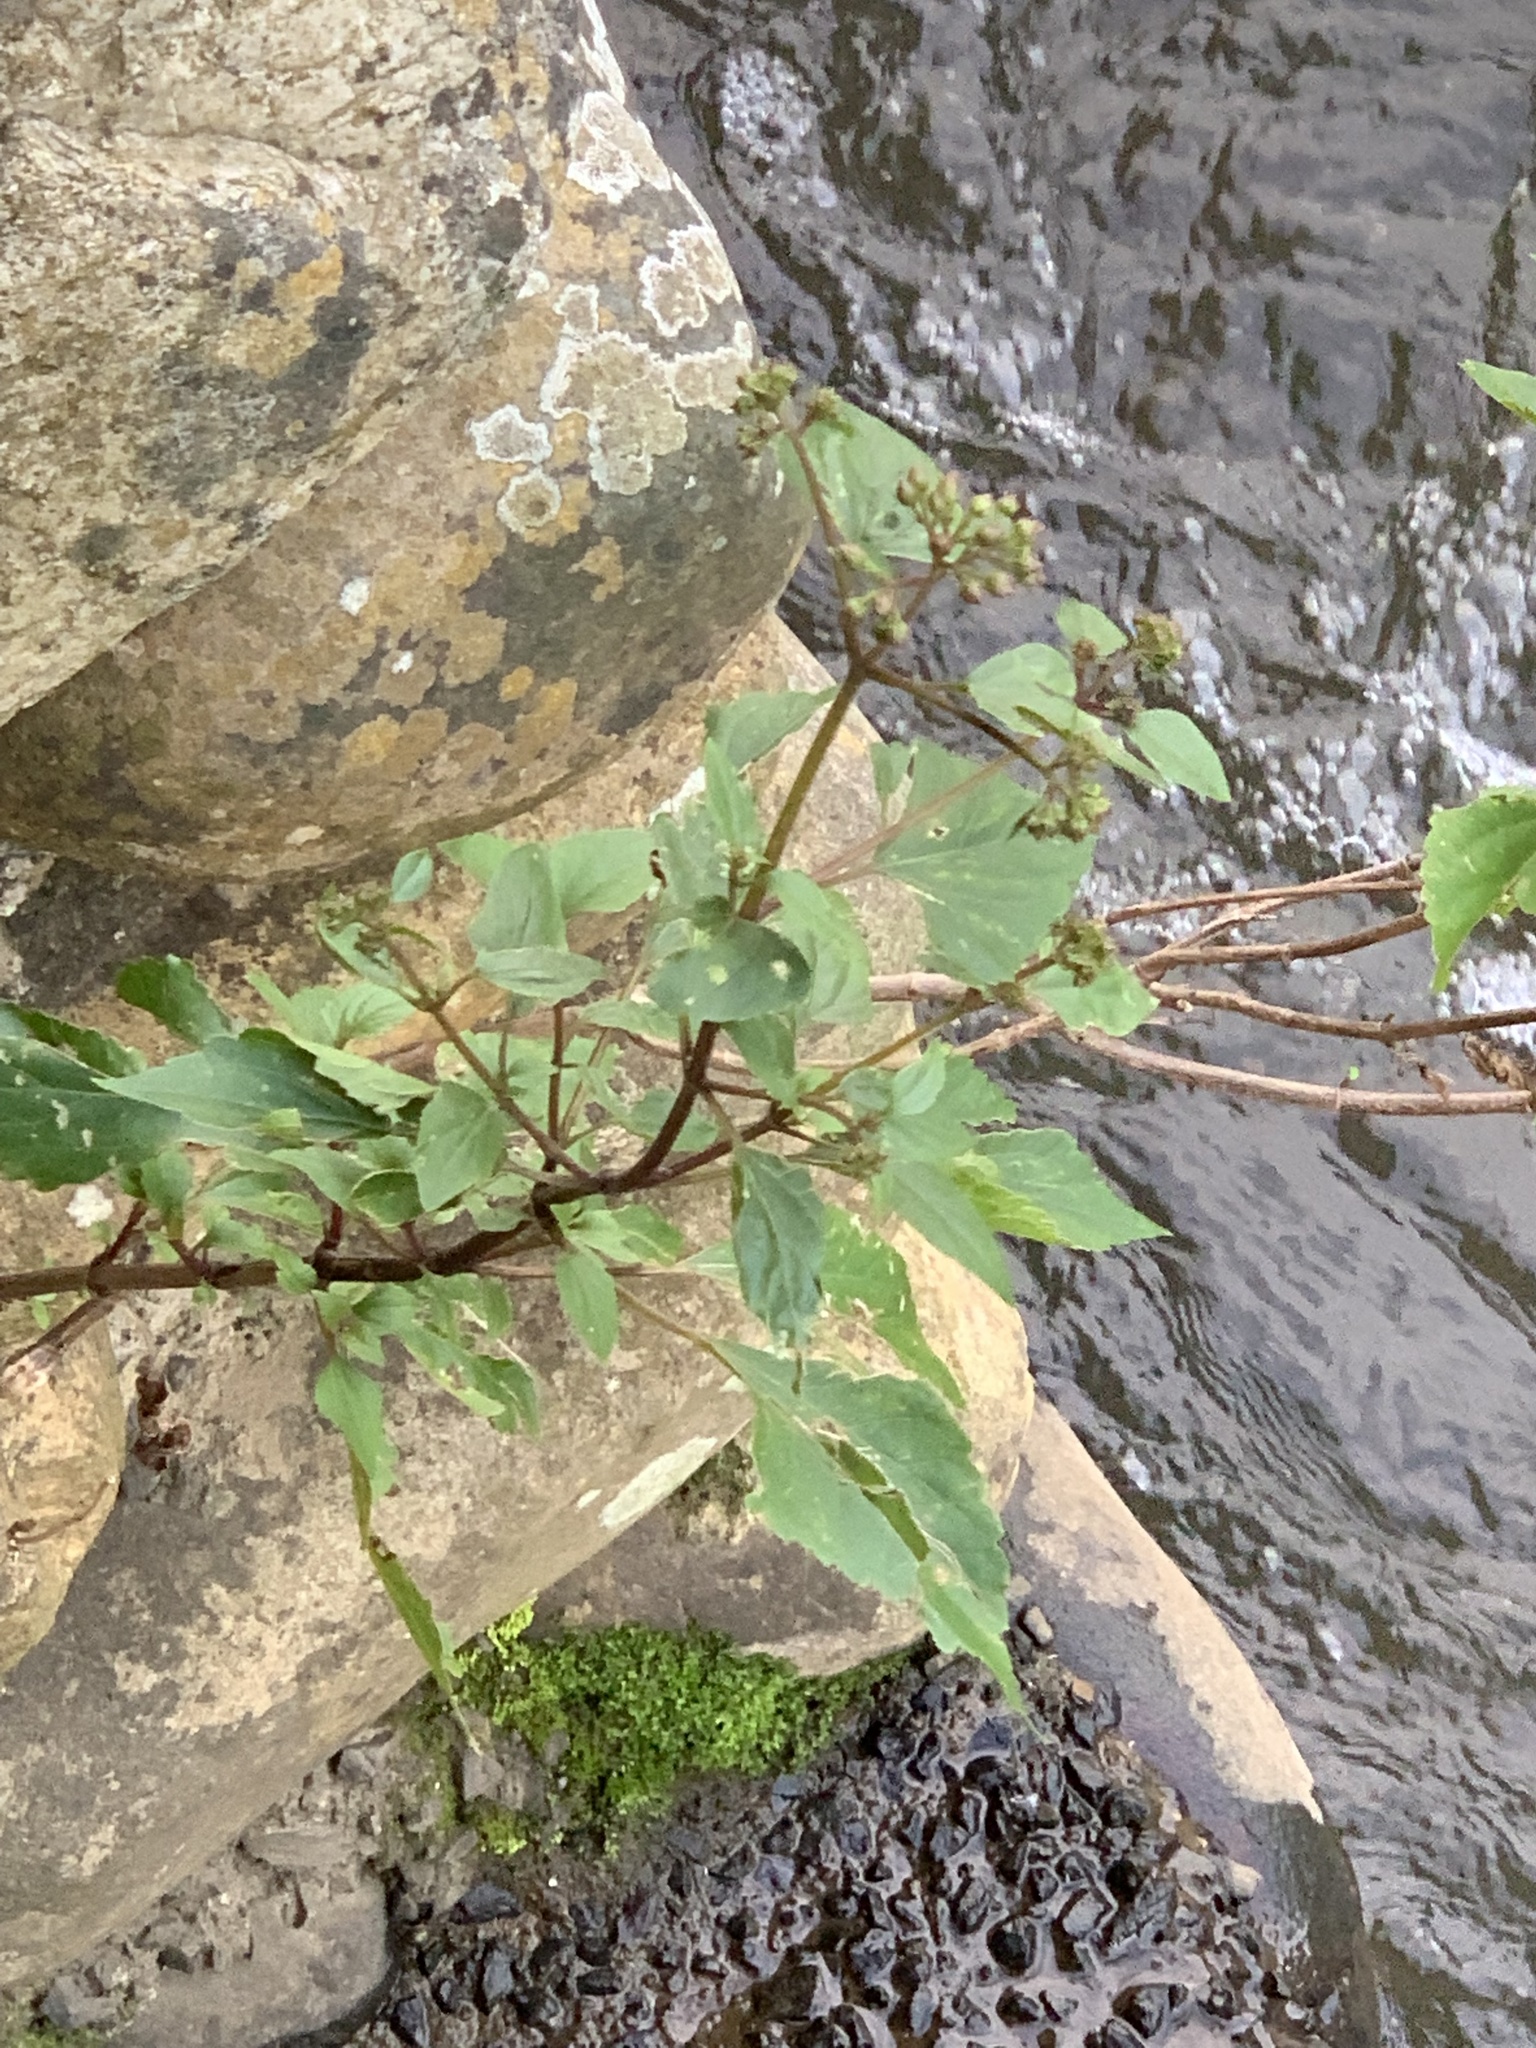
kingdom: Plantae
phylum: Tracheophyta
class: Magnoliopsida
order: Asterales
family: Asteraceae
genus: Ageratina
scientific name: Ageratina adenophora
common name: Sticky snakeroot
